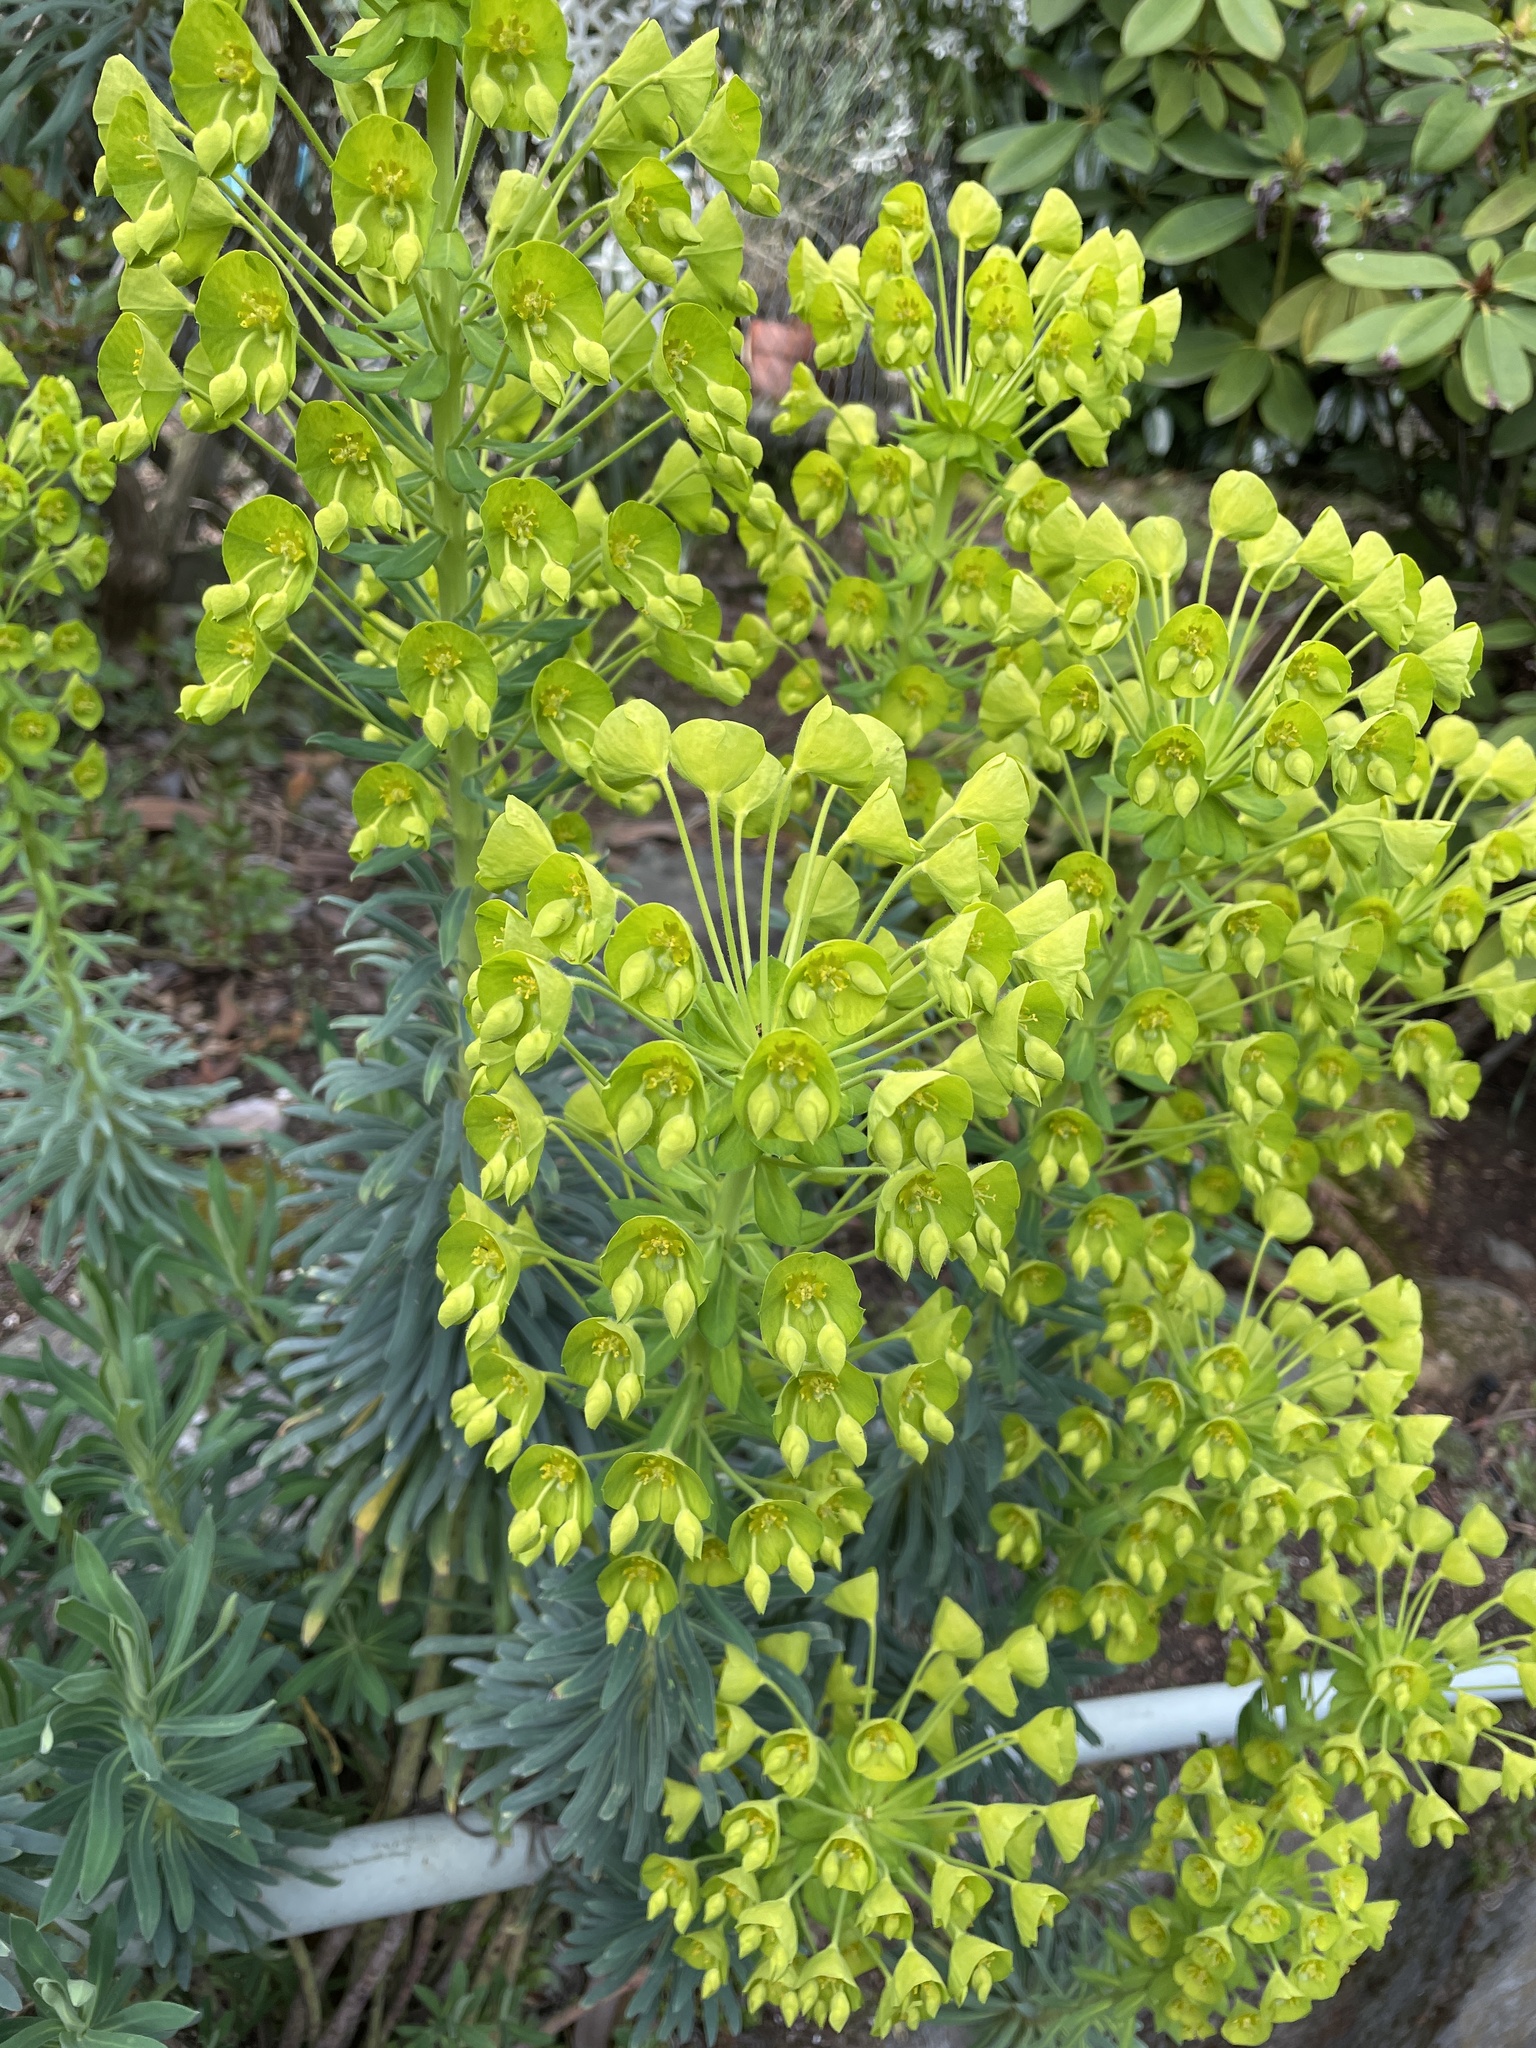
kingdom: Plantae
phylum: Tracheophyta
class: Magnoliopsida
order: Malpighiales
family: Euphorbiaceae
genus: Euphorbia
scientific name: Euphorbia characias
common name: Mediterranean spurge
